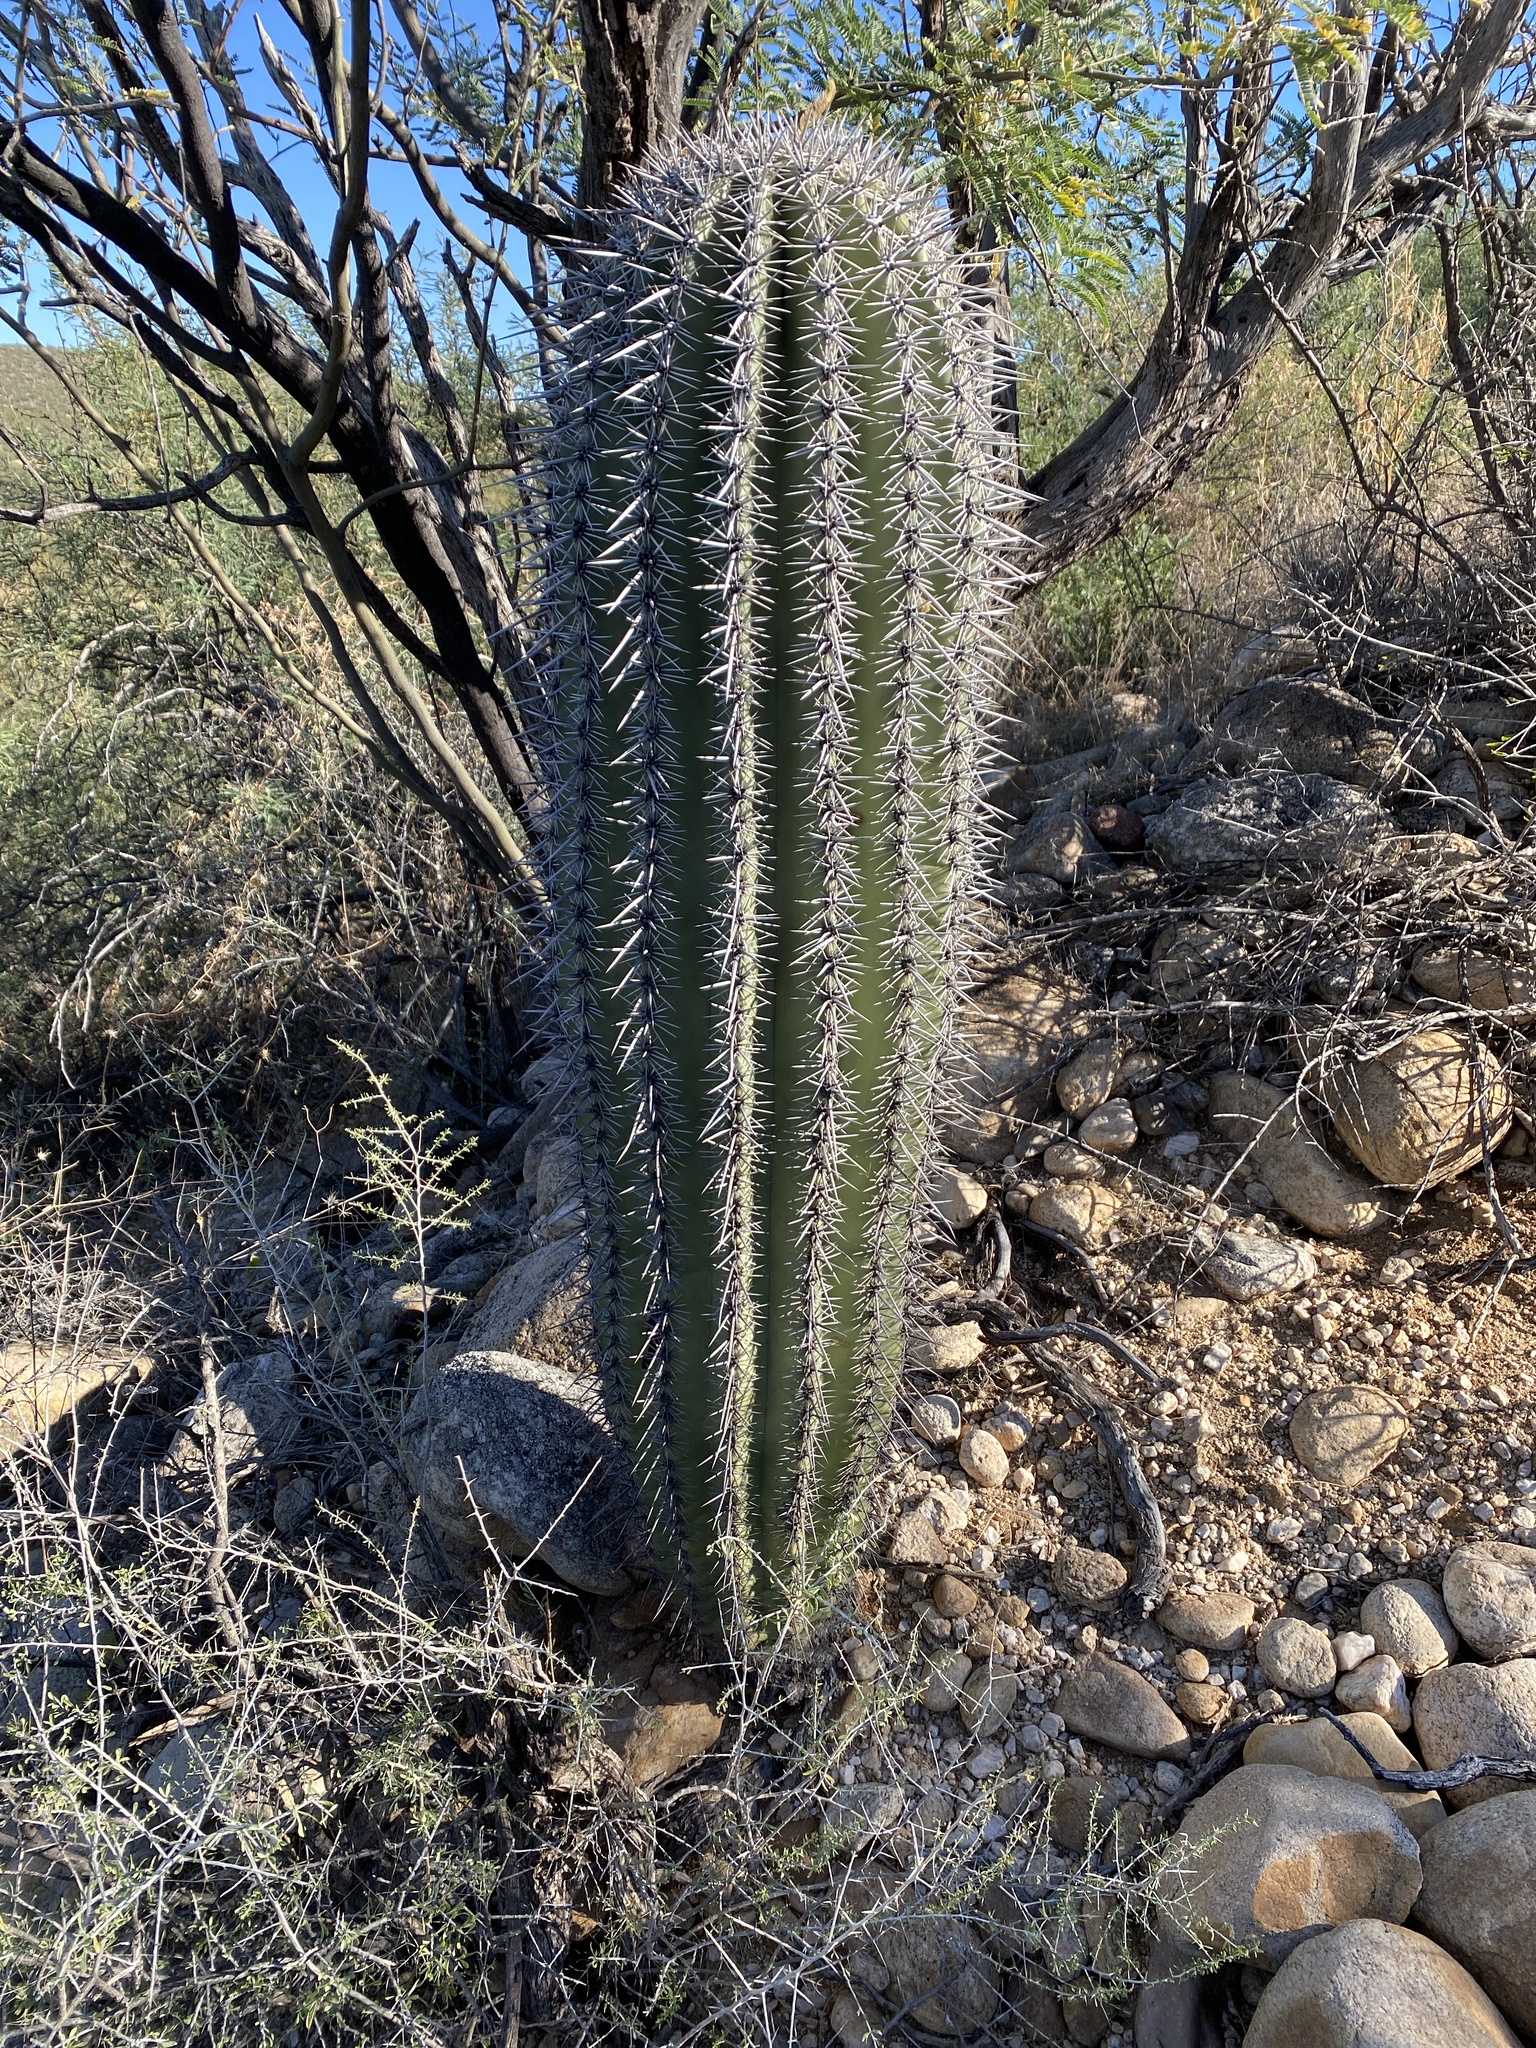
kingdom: Plantae
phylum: Tracheophyta
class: Magnoliopsida
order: Caryophyllales
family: Cactaceae
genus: Carnegiea
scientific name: Carnegiea gigantea
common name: Saguaro
